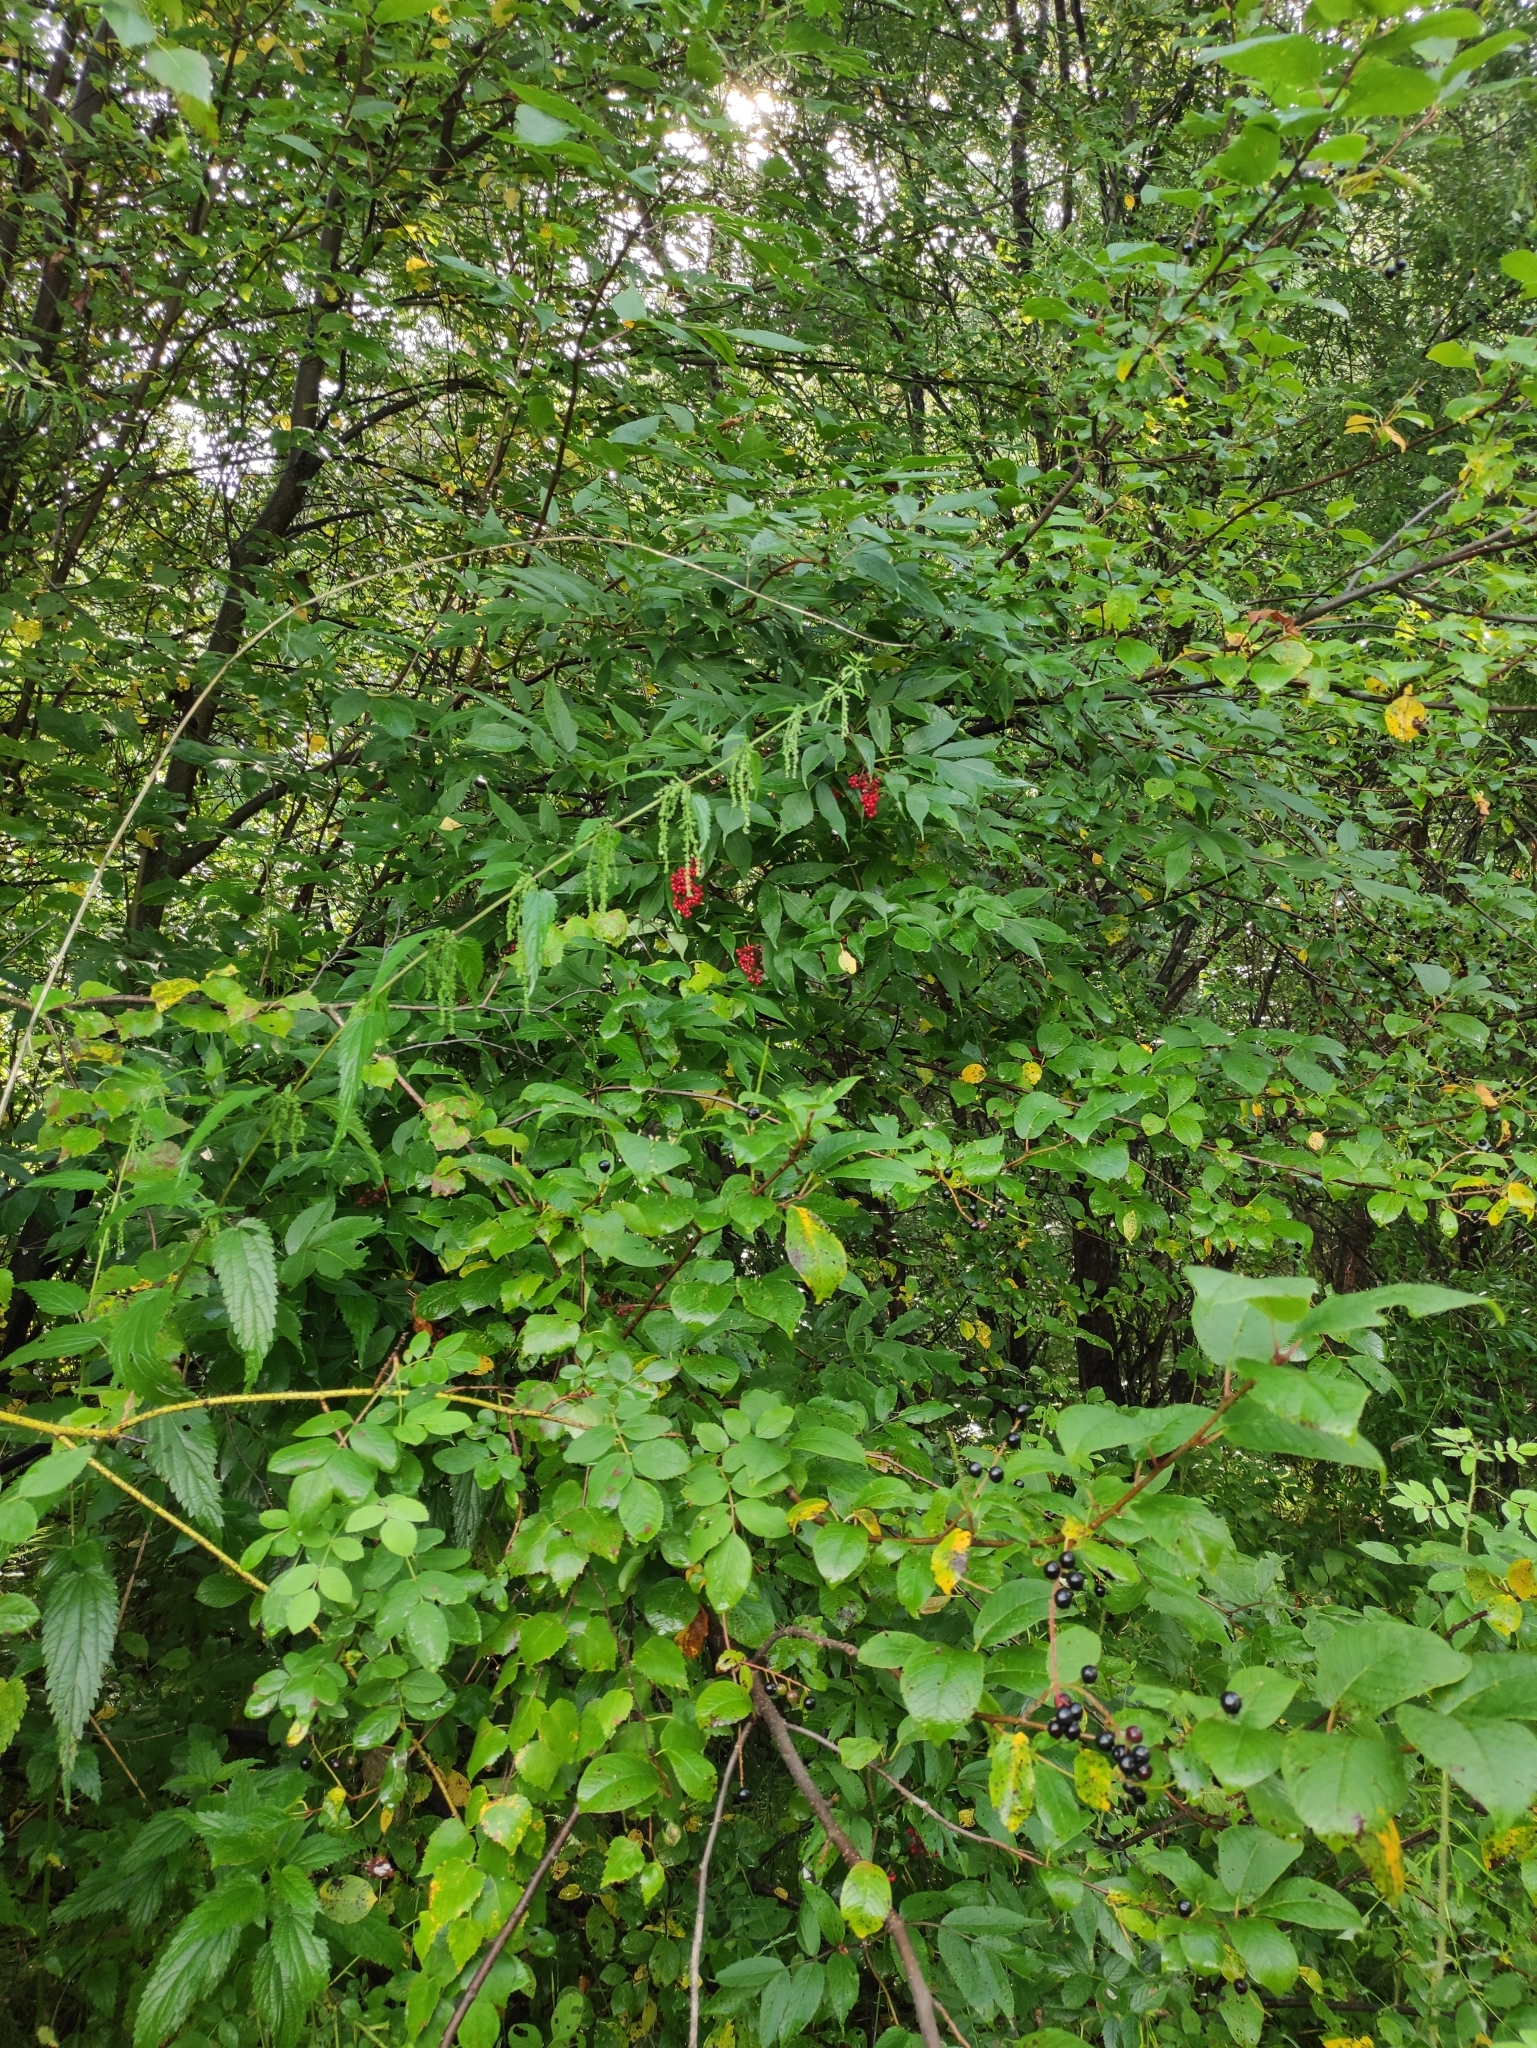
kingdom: Plantae
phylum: Tracheophyta
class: Magnoliopsida
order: Dipsacales
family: Viburnaceae
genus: Sambucus
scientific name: Sambucus sibirica
